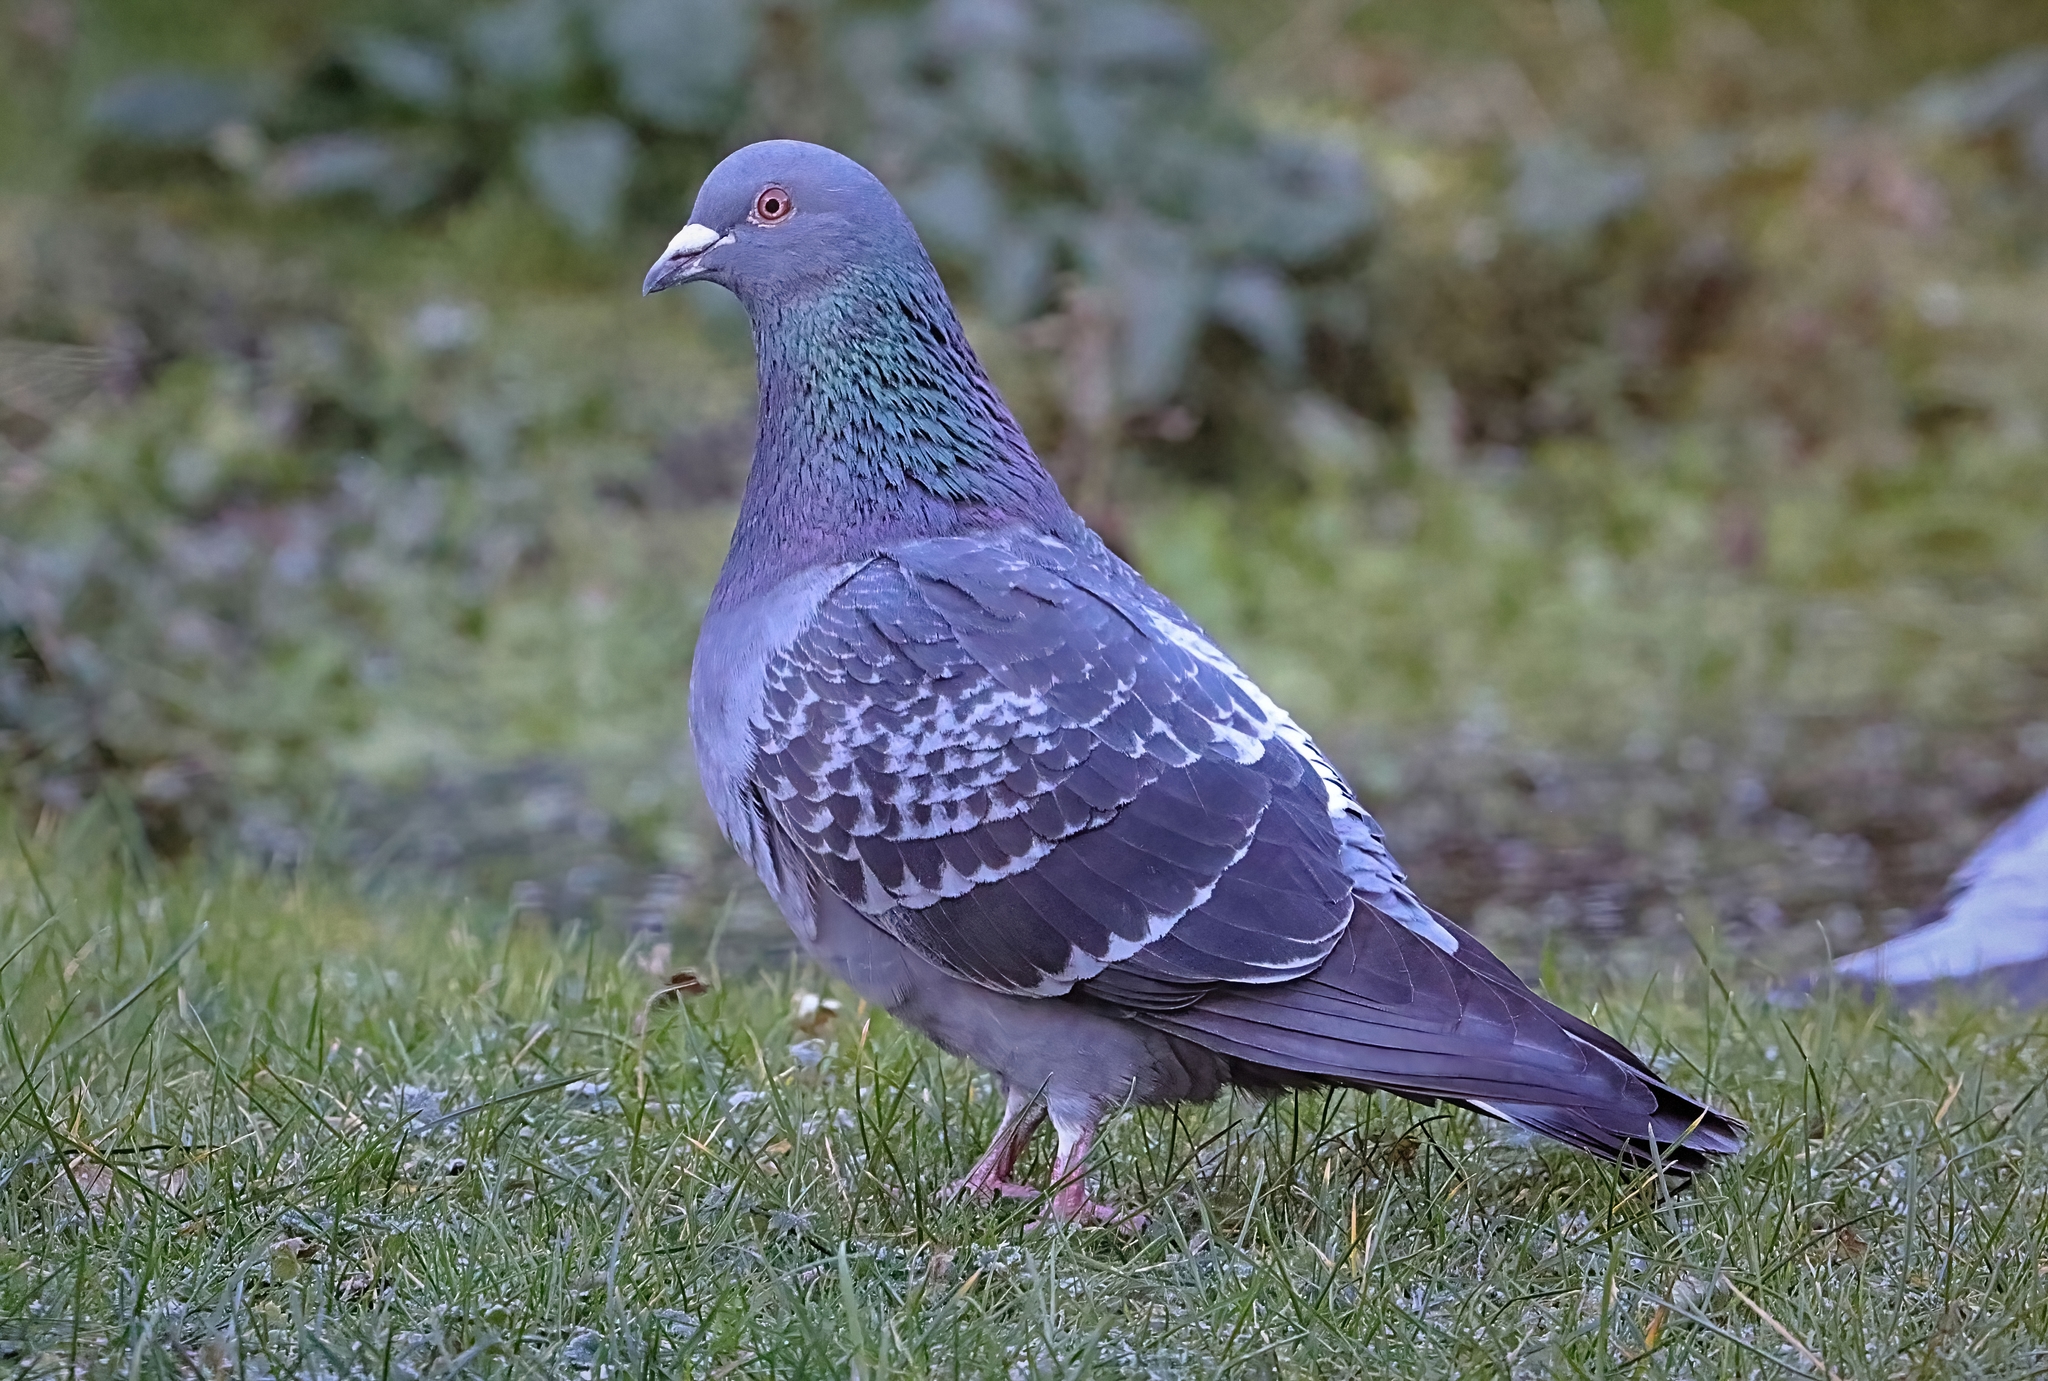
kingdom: Animalia
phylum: Chordata
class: Aves
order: Columbiformes
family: Columbidae
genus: Columba
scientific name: Columba livia
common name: Rock pigeon
